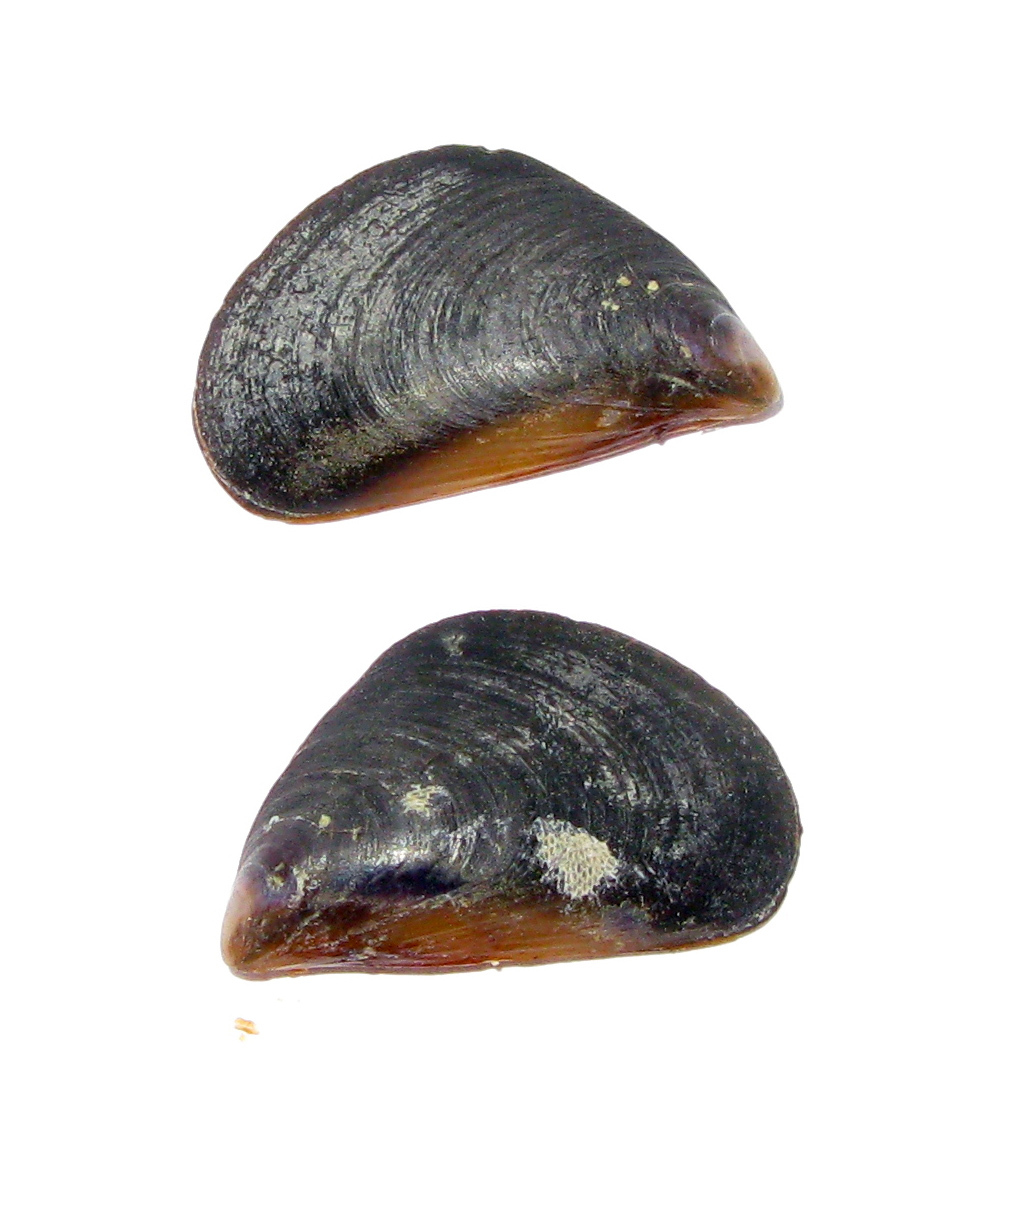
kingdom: Animalia
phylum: Mollusca
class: Bivalvia
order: Mytilida
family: Mytilidae
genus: Mytilus
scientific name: Mytilus galloprovincialis
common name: Mediterranean mussel
